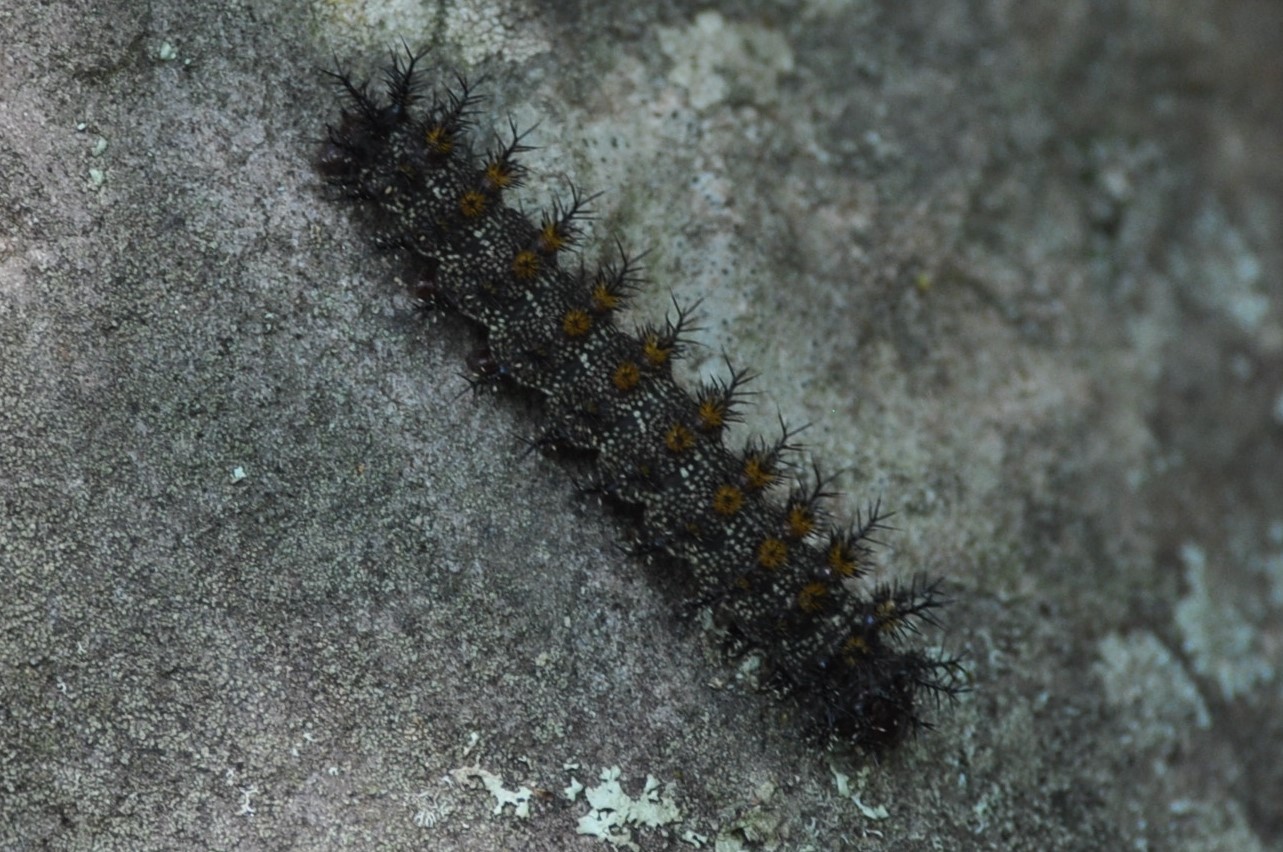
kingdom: Animalia
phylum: Arthropoda
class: Insecta
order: Lepidoptera
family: Saturniidae
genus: Hemileuca
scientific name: Hemileuca maia
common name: Eastern buckmoth
